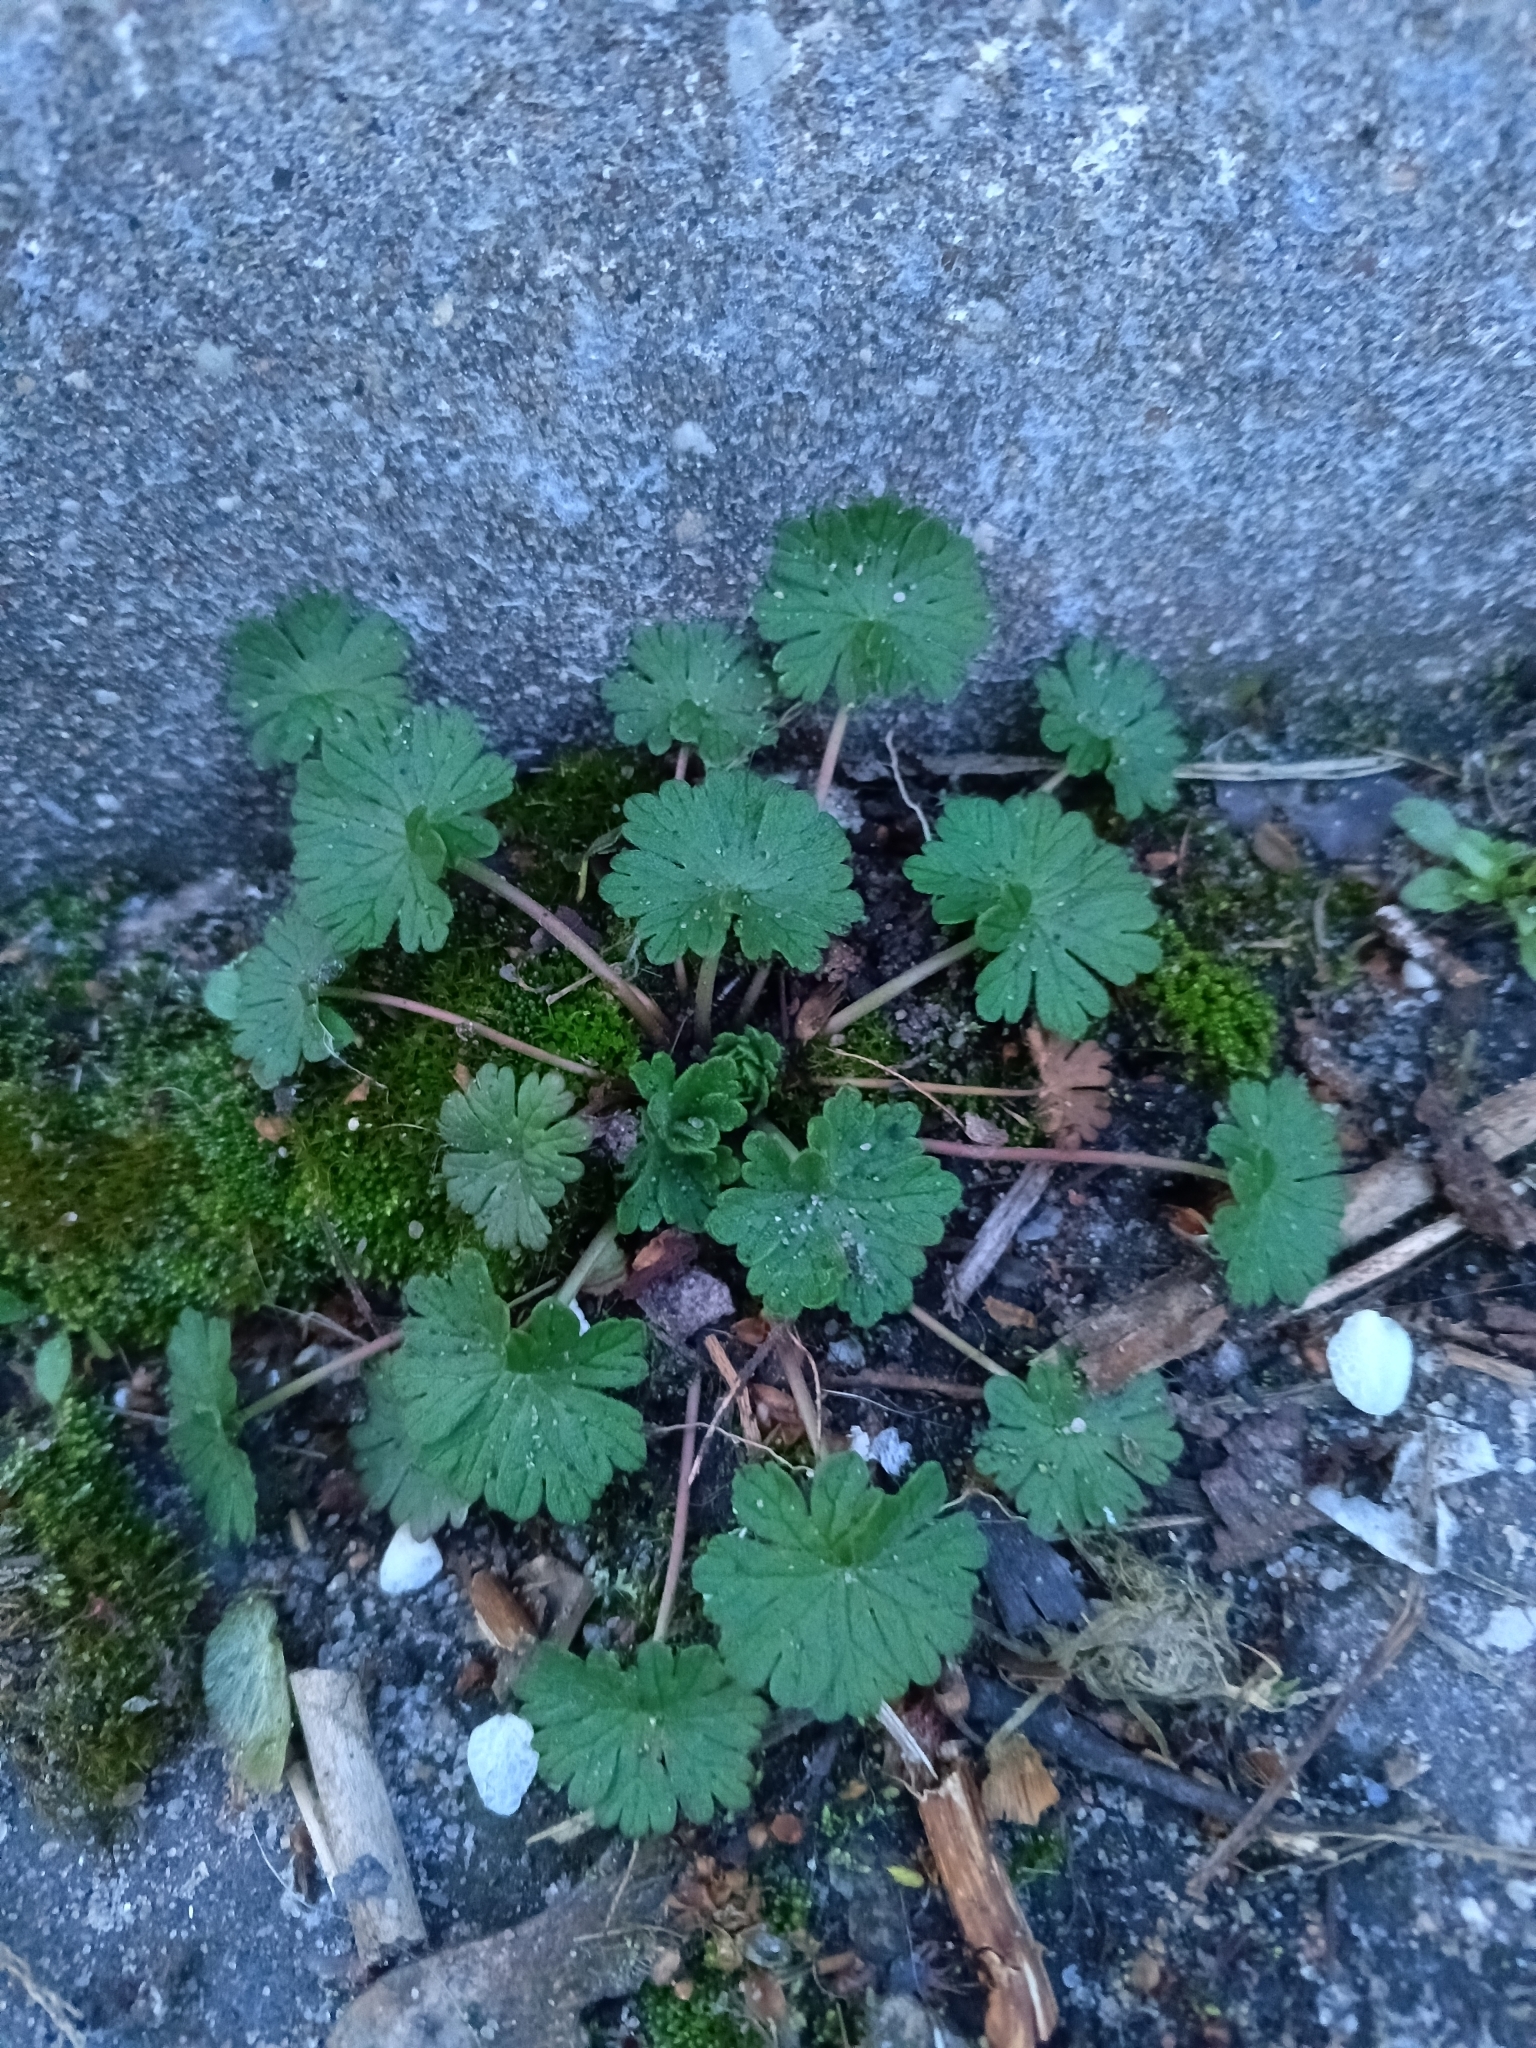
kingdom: Plantae
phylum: Tracheophyta
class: Magnoliopsida
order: Geraniales
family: Geraniaceae
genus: Geranium
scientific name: Geranium pusillum
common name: Small geranium
